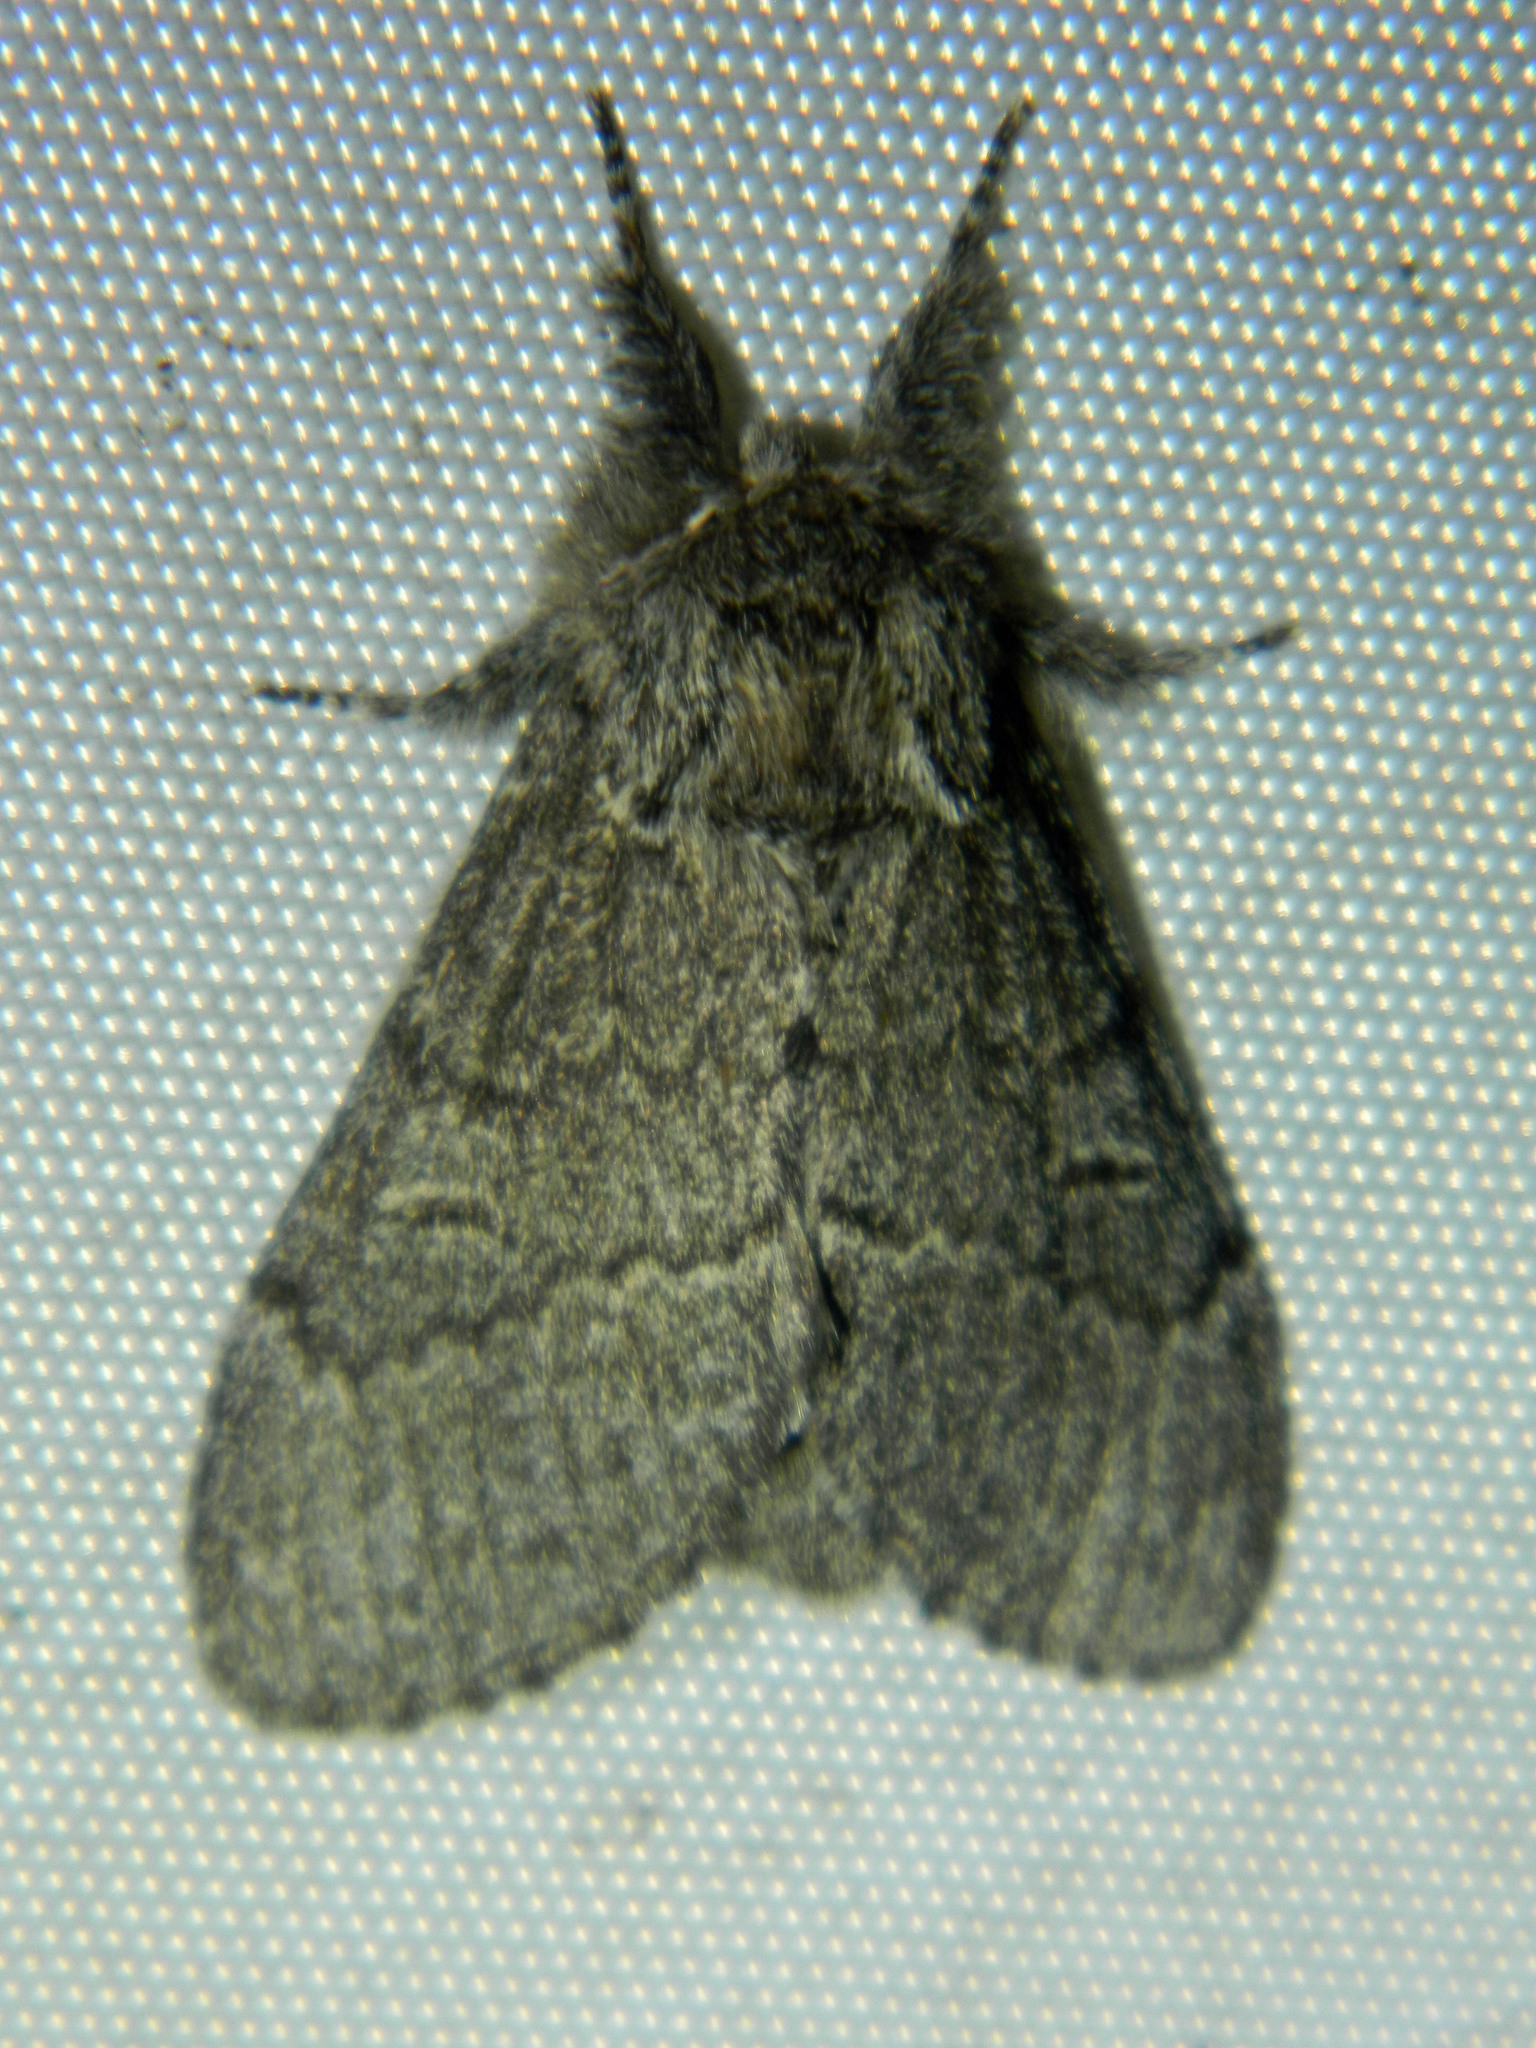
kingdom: Animalia
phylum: Arthropoda
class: Insecta
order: Lepidoptera
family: Notodontidae
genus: Notodonta
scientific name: Notodonta torva
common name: Large dark prominent
